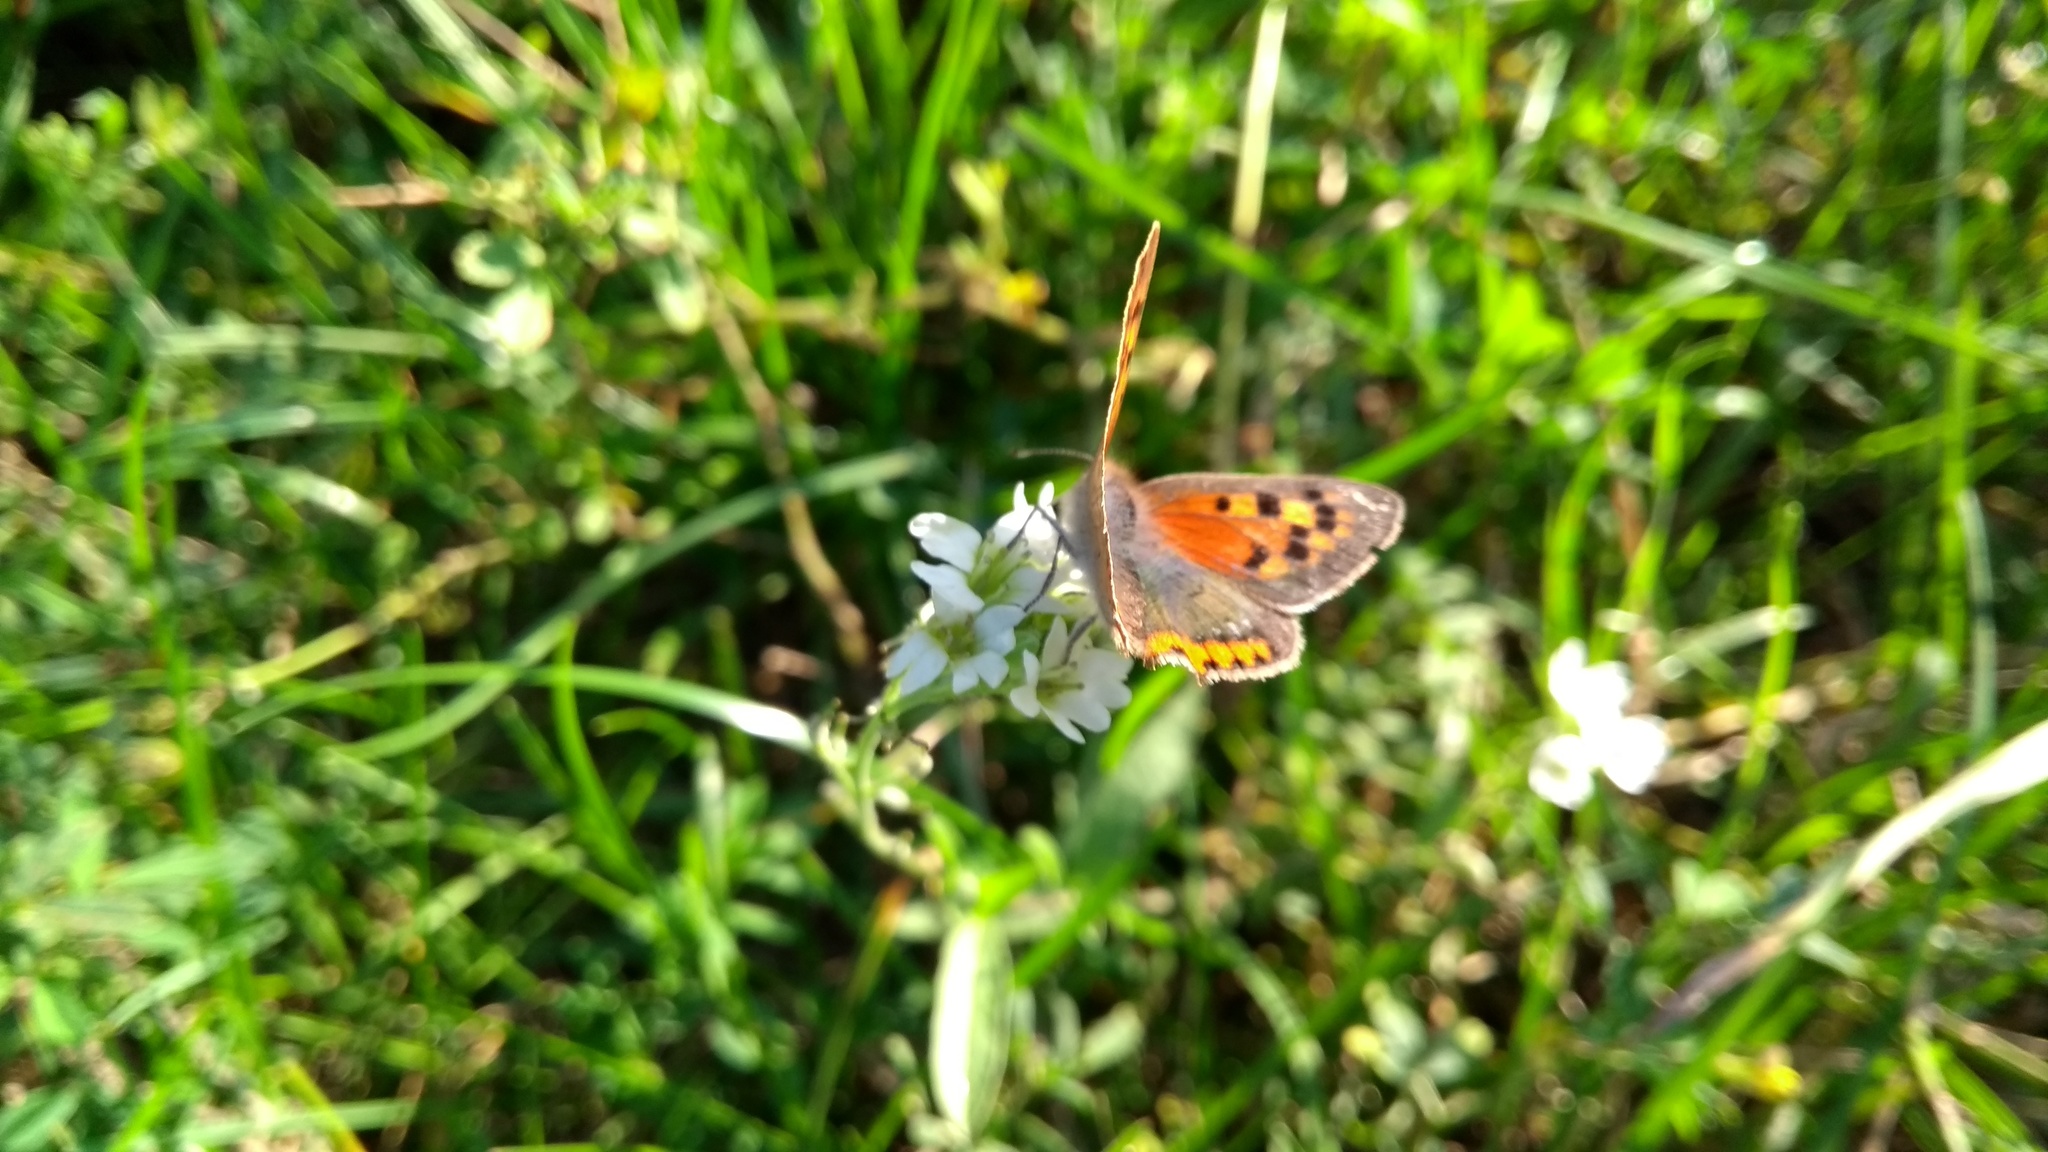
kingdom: Animalia
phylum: Arthropoda
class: Insecta
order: Lepidoptera
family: Lycaenidae
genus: Lycaena
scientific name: Lycaena phlaeas
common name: Small copper
